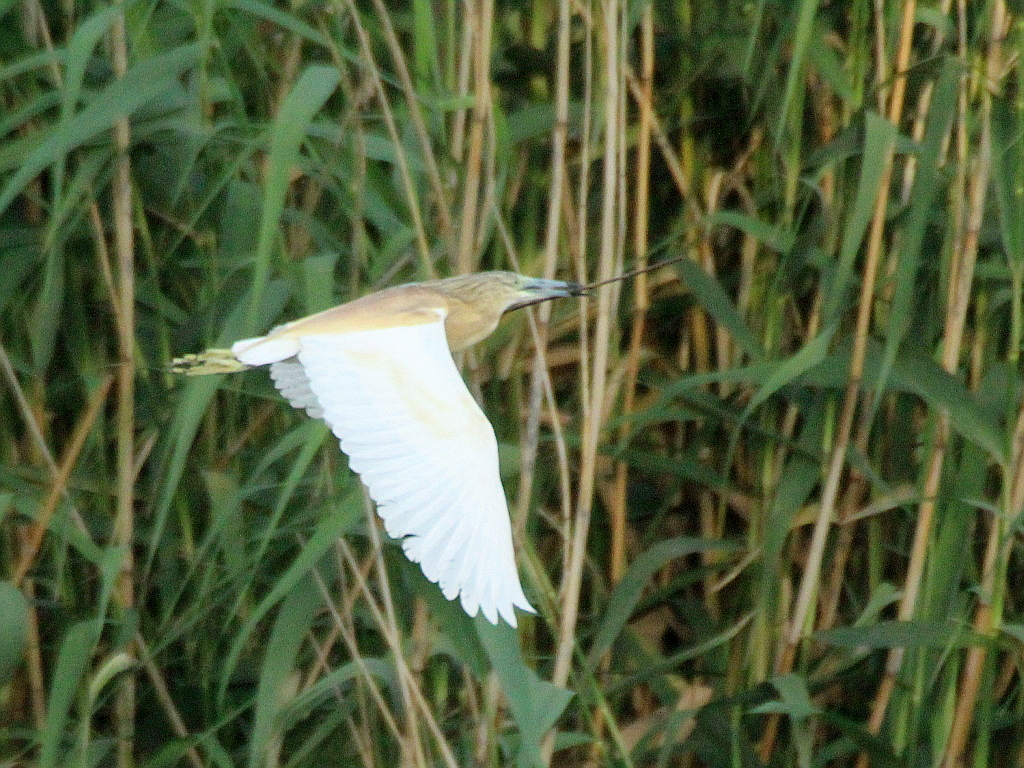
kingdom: Animalia
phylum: Chordata
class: Aves
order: Pelecaniformes
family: Ardeidae
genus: Ardeola
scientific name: Ardeola ralloides
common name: Squacco heron
